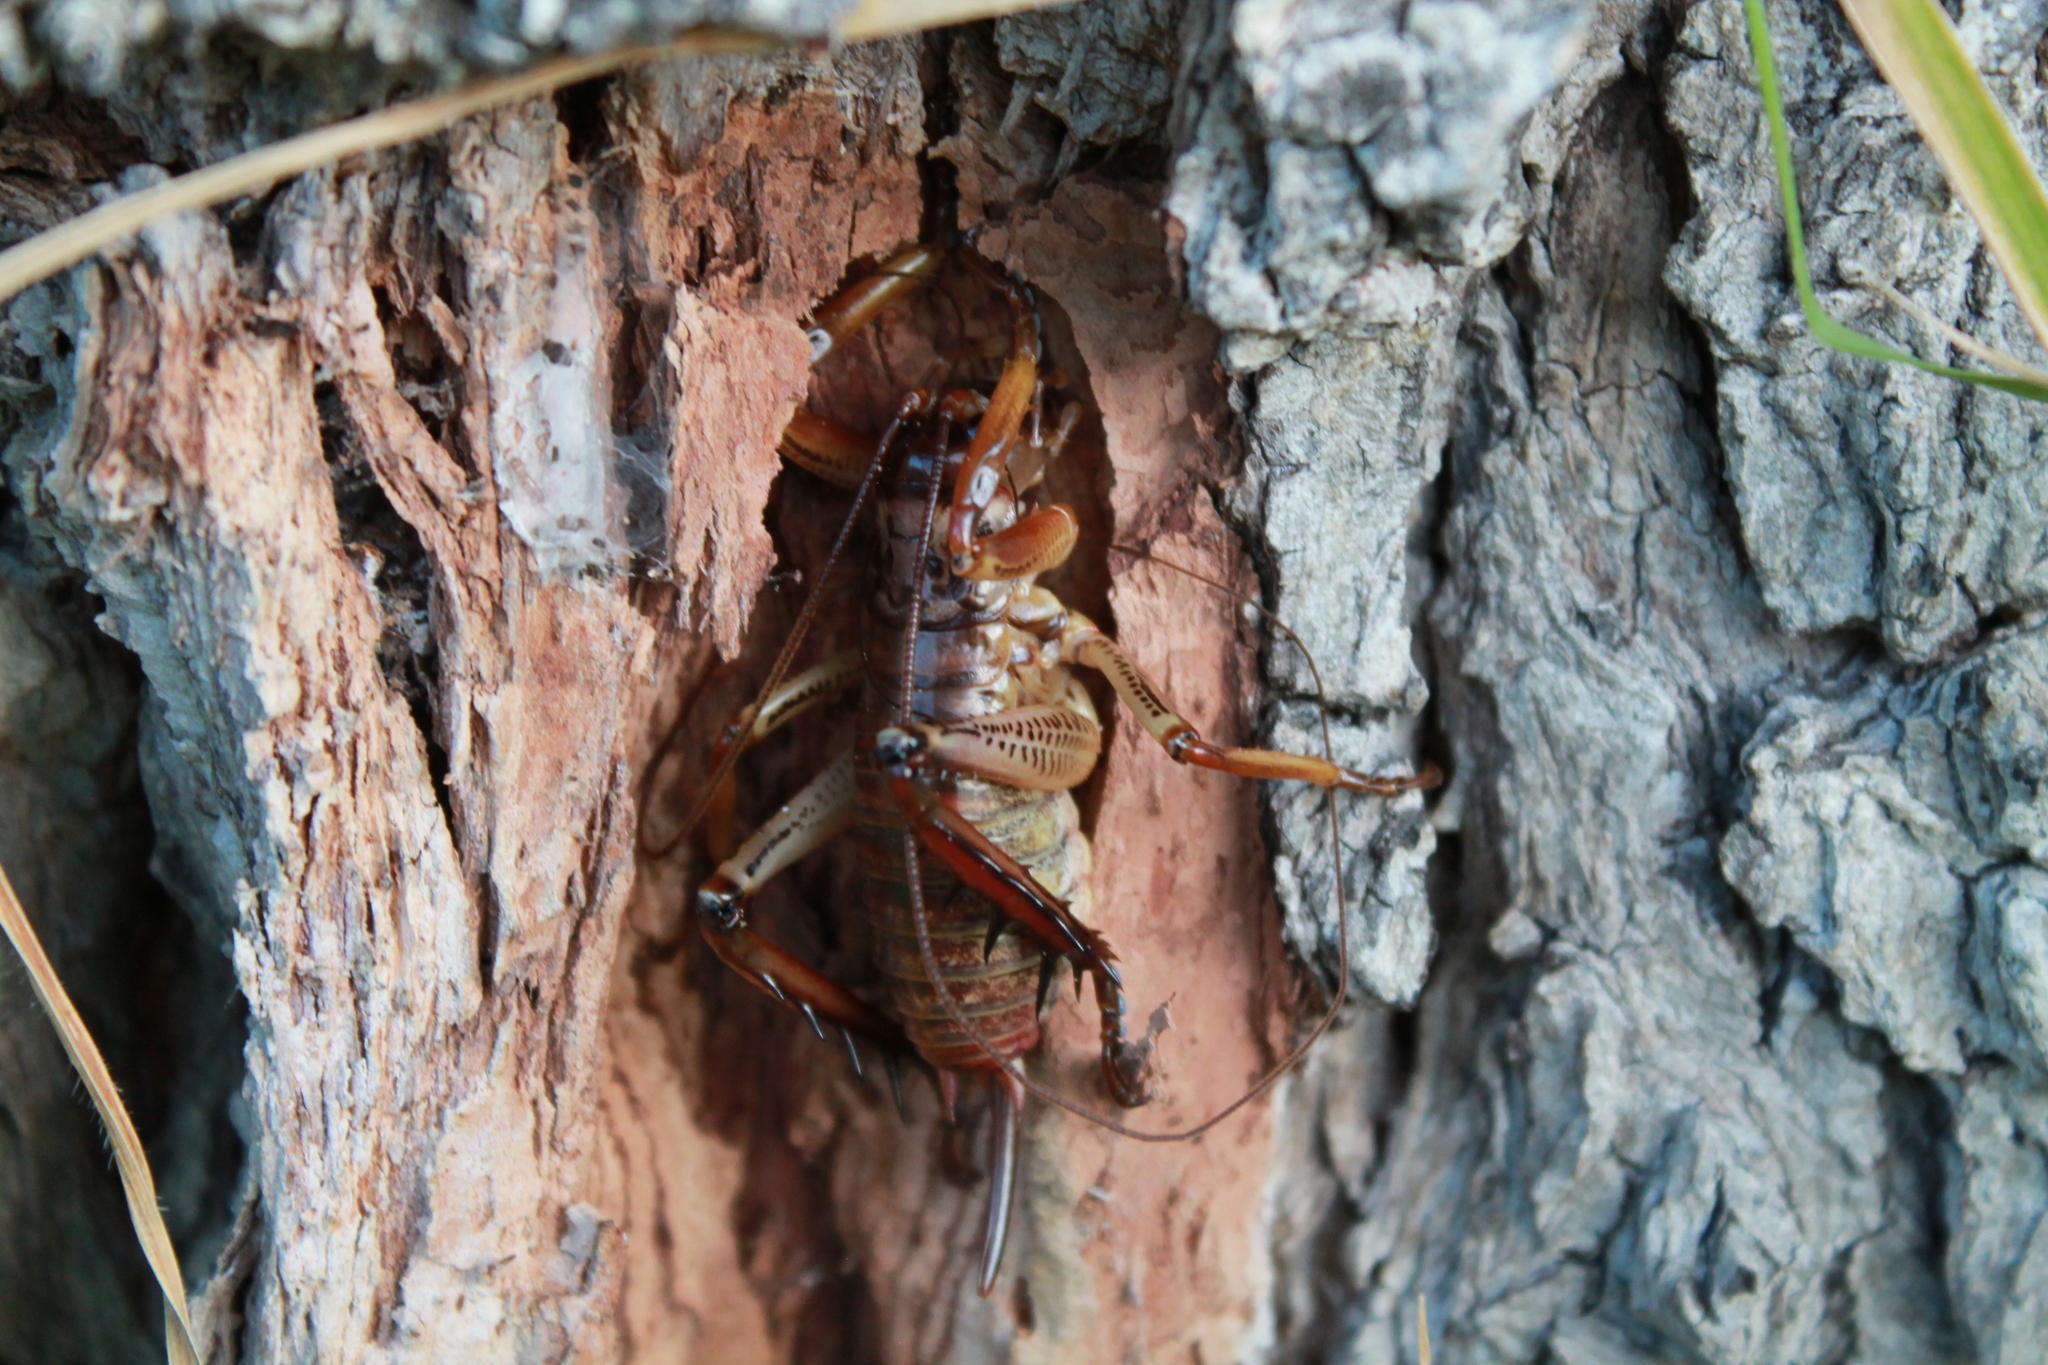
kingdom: Animalia
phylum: Arthropoda
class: Insecta
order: Orthoptera
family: Anostostomatidae
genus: Hemideina
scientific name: Hemideina thoracica
